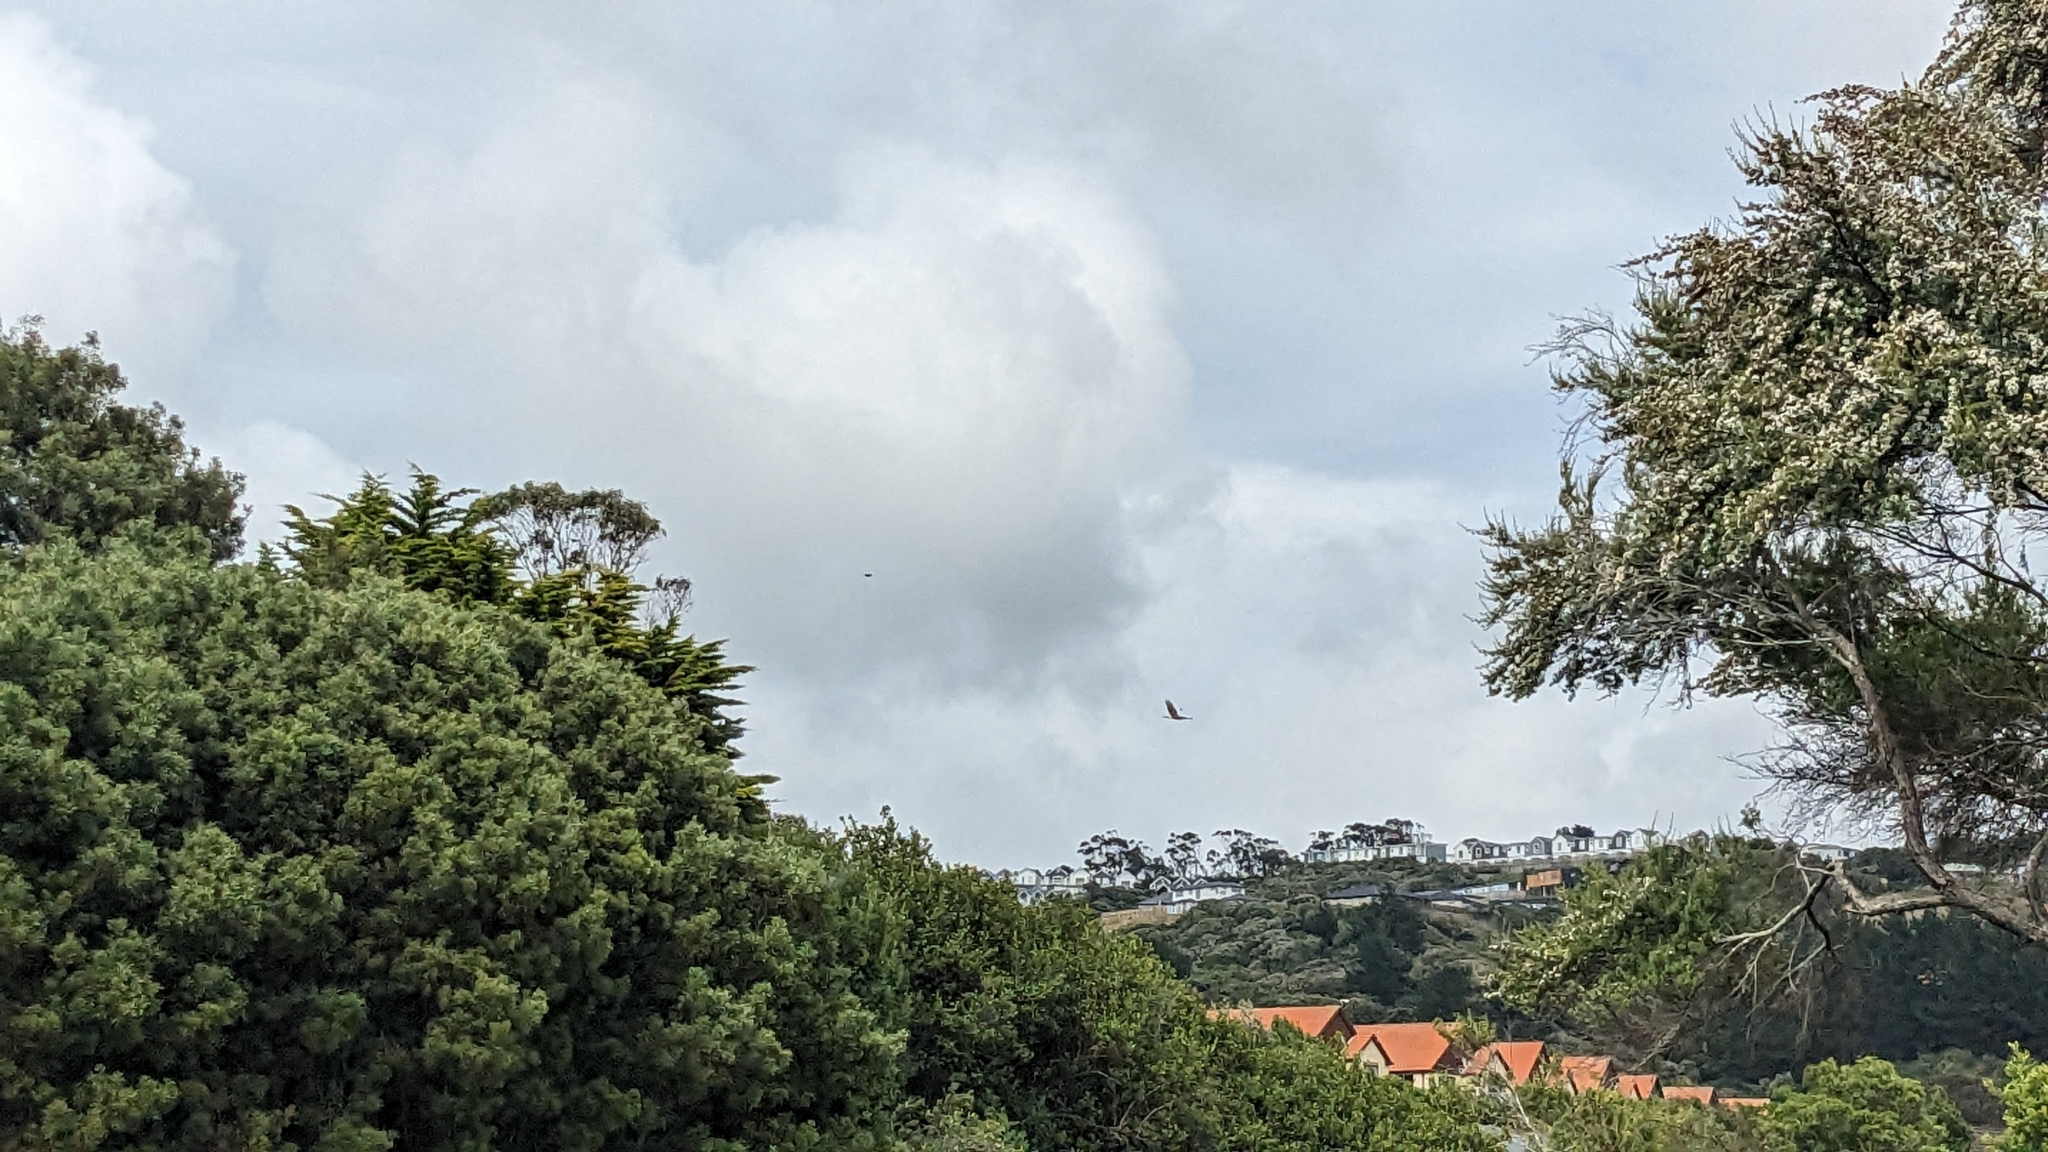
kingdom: Animalia
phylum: Chordata
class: Aves
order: Accipitriformes
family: Accipitridae
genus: Circus
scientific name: Circus approximans
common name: Swamp harrier
